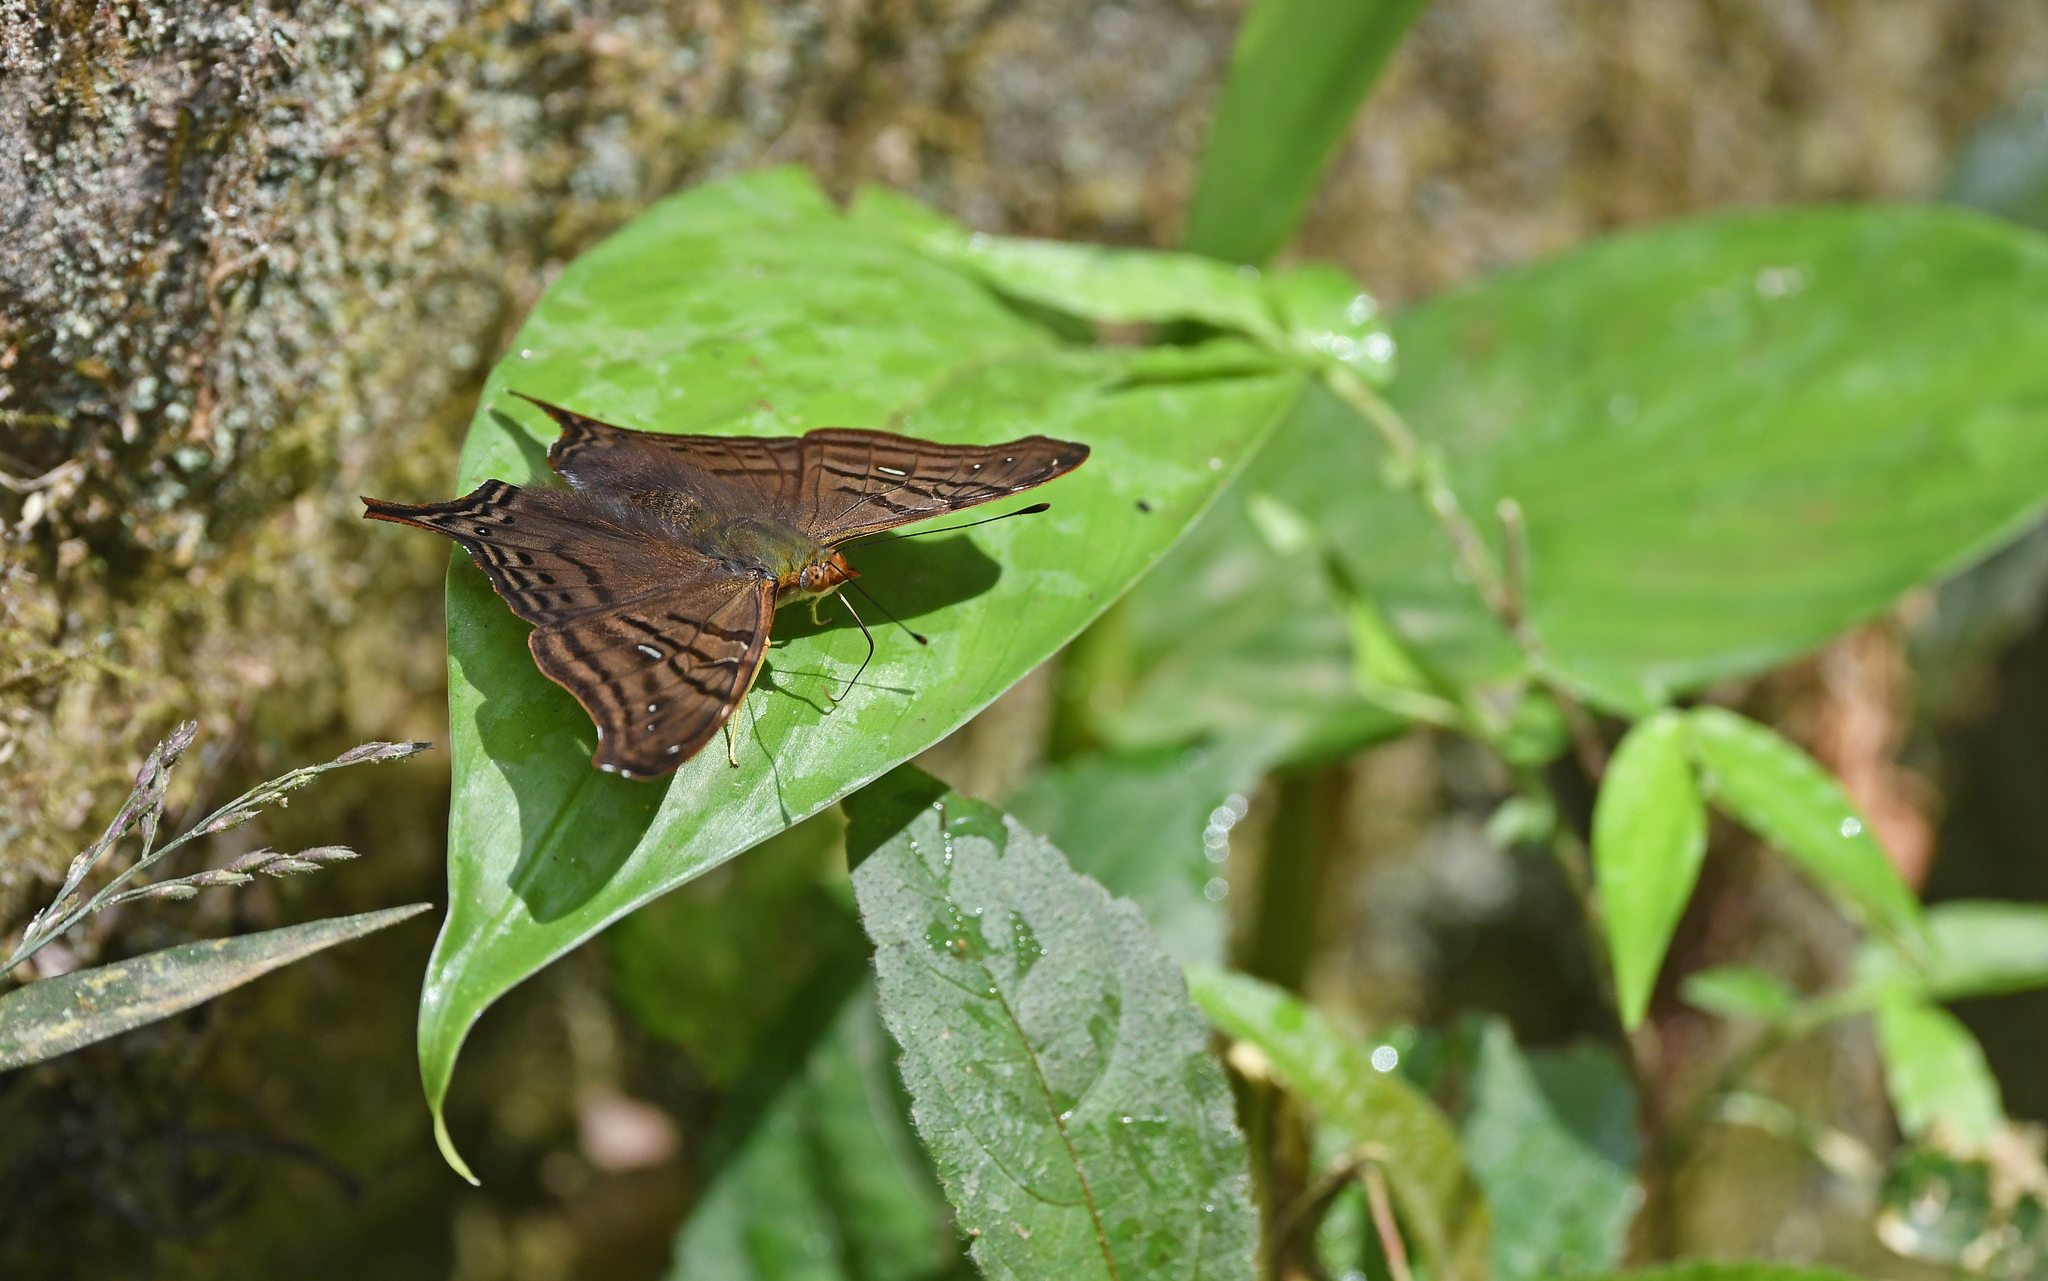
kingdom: Animalia
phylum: Arthropoda
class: Insecta
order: Lepidoptera
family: Nymphalidae
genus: Hypanartia
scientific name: Hypanartia dione
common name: Banded mapwing
